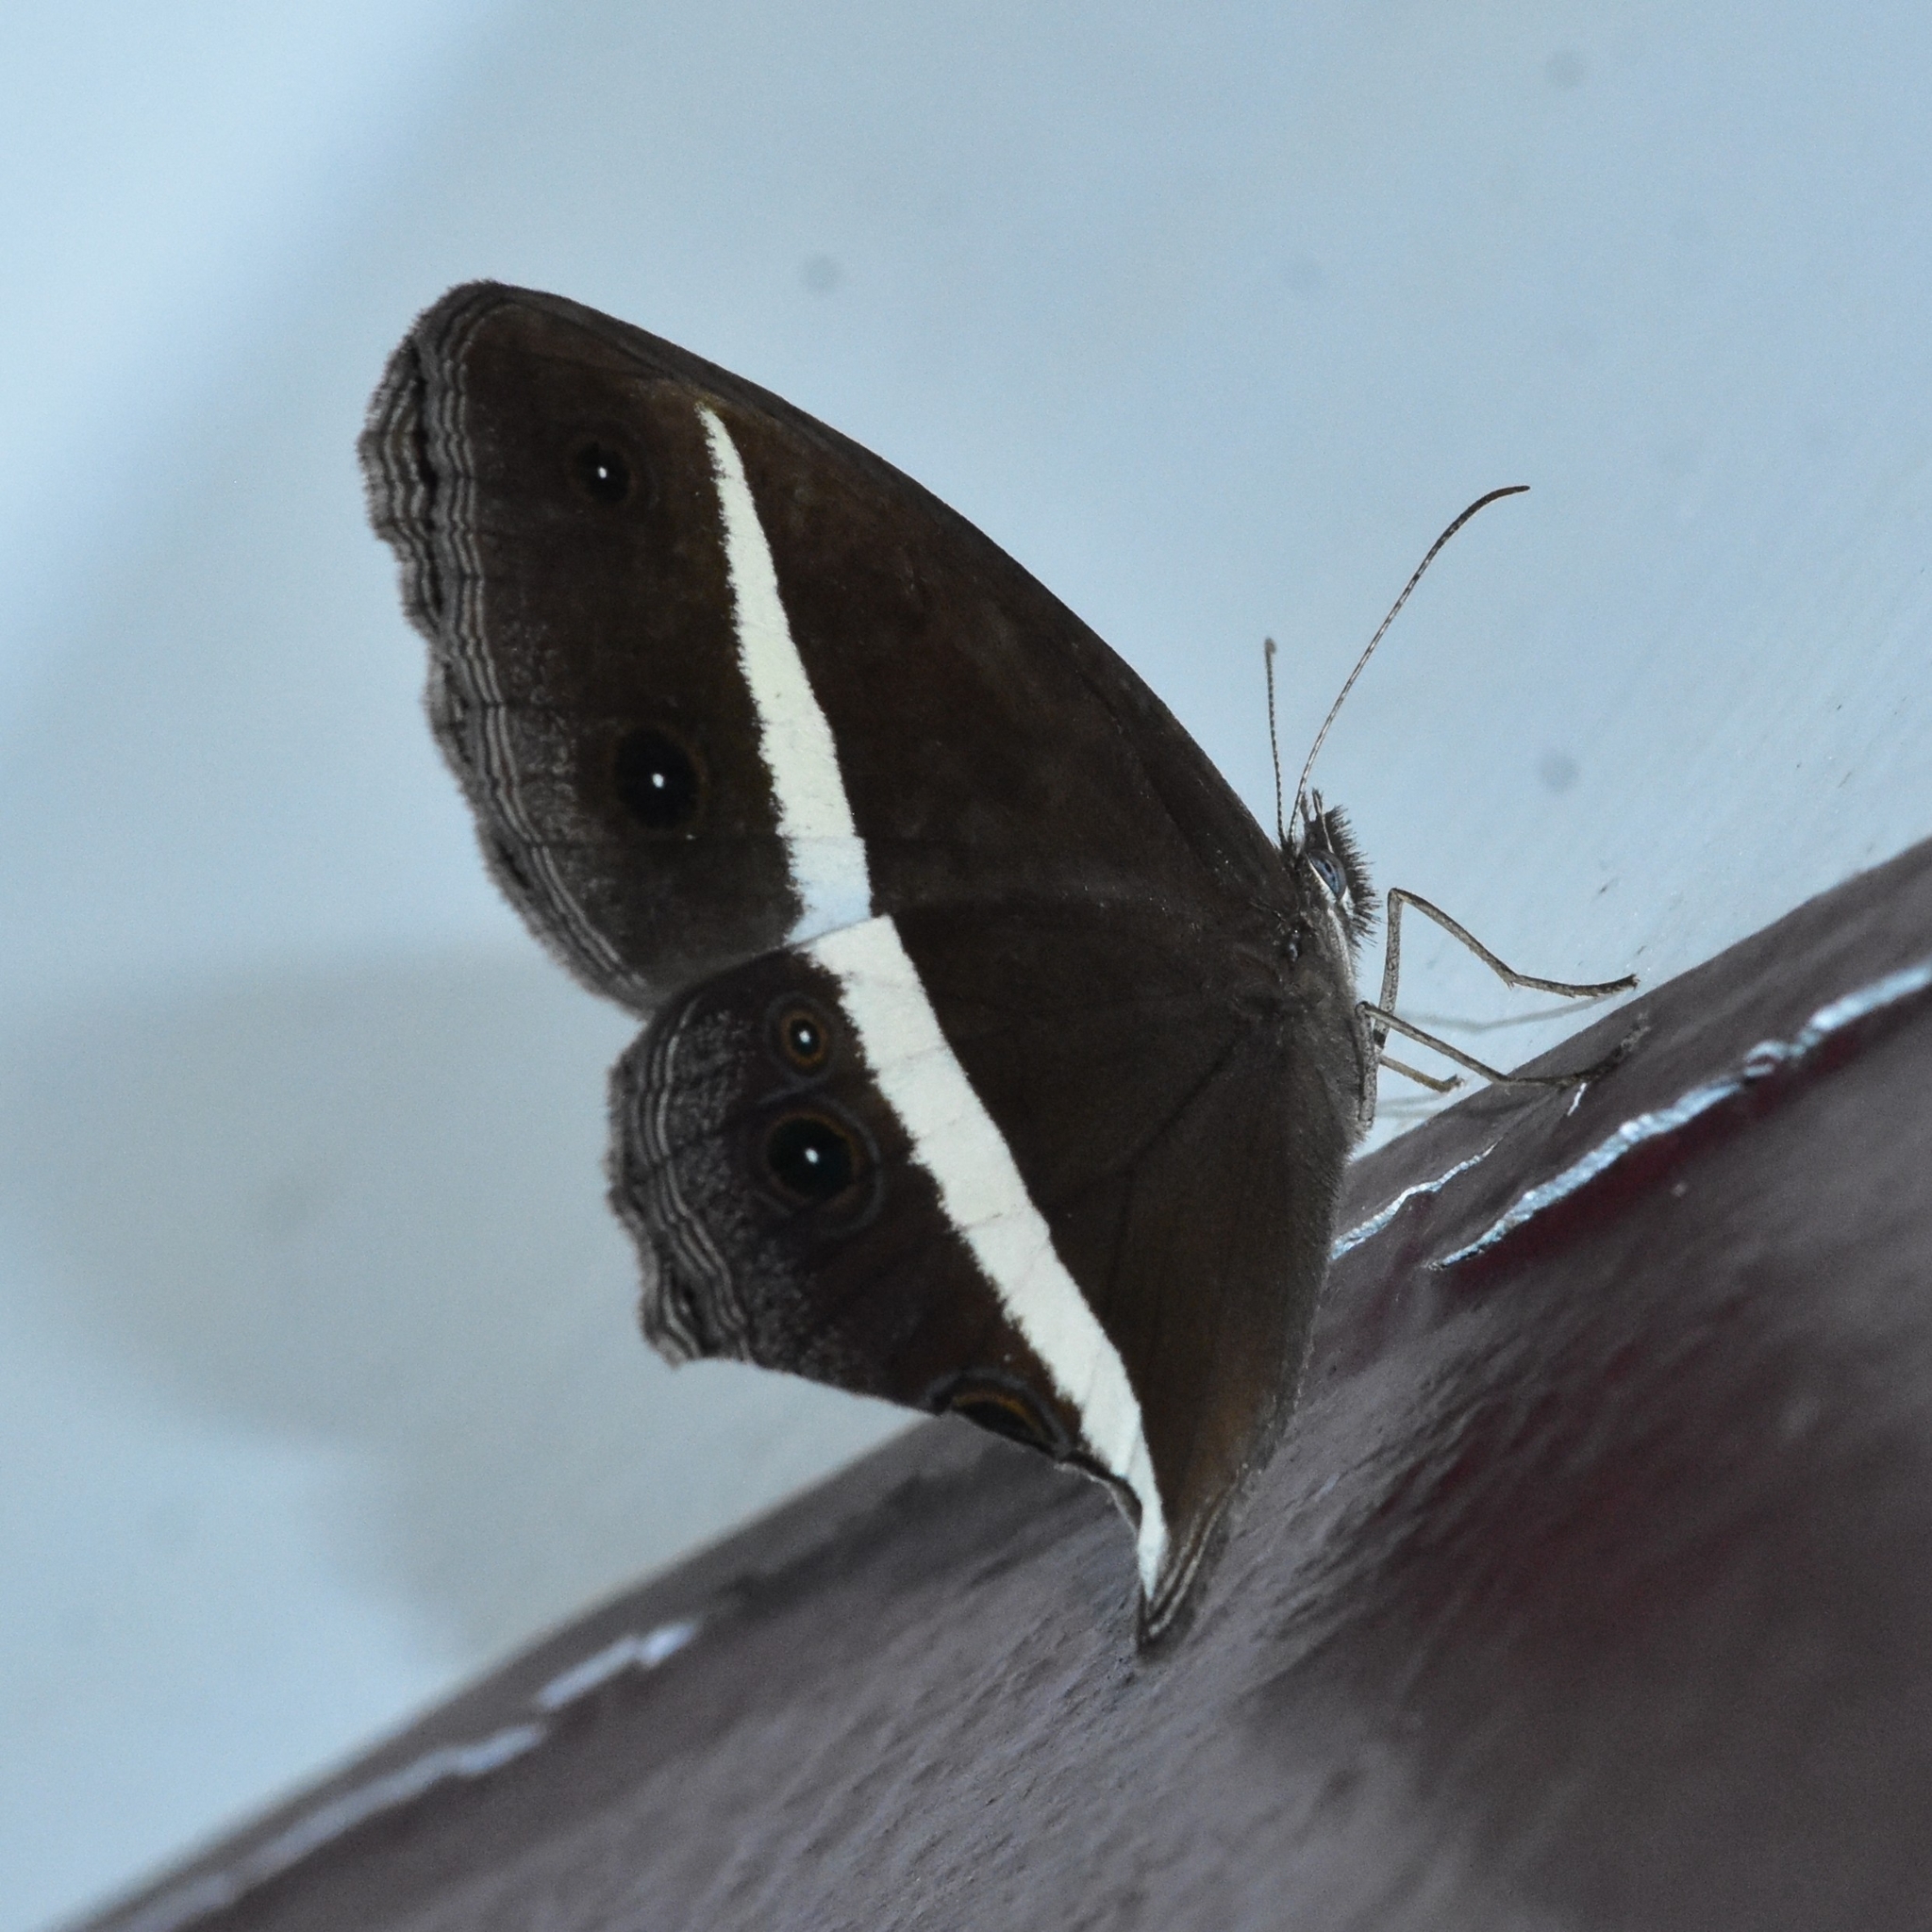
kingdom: Animalia
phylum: Arthropoda
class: Insecta
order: Lepidoptera
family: Nymphalidae
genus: Orsotriaena
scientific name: Orsotriaena medus
